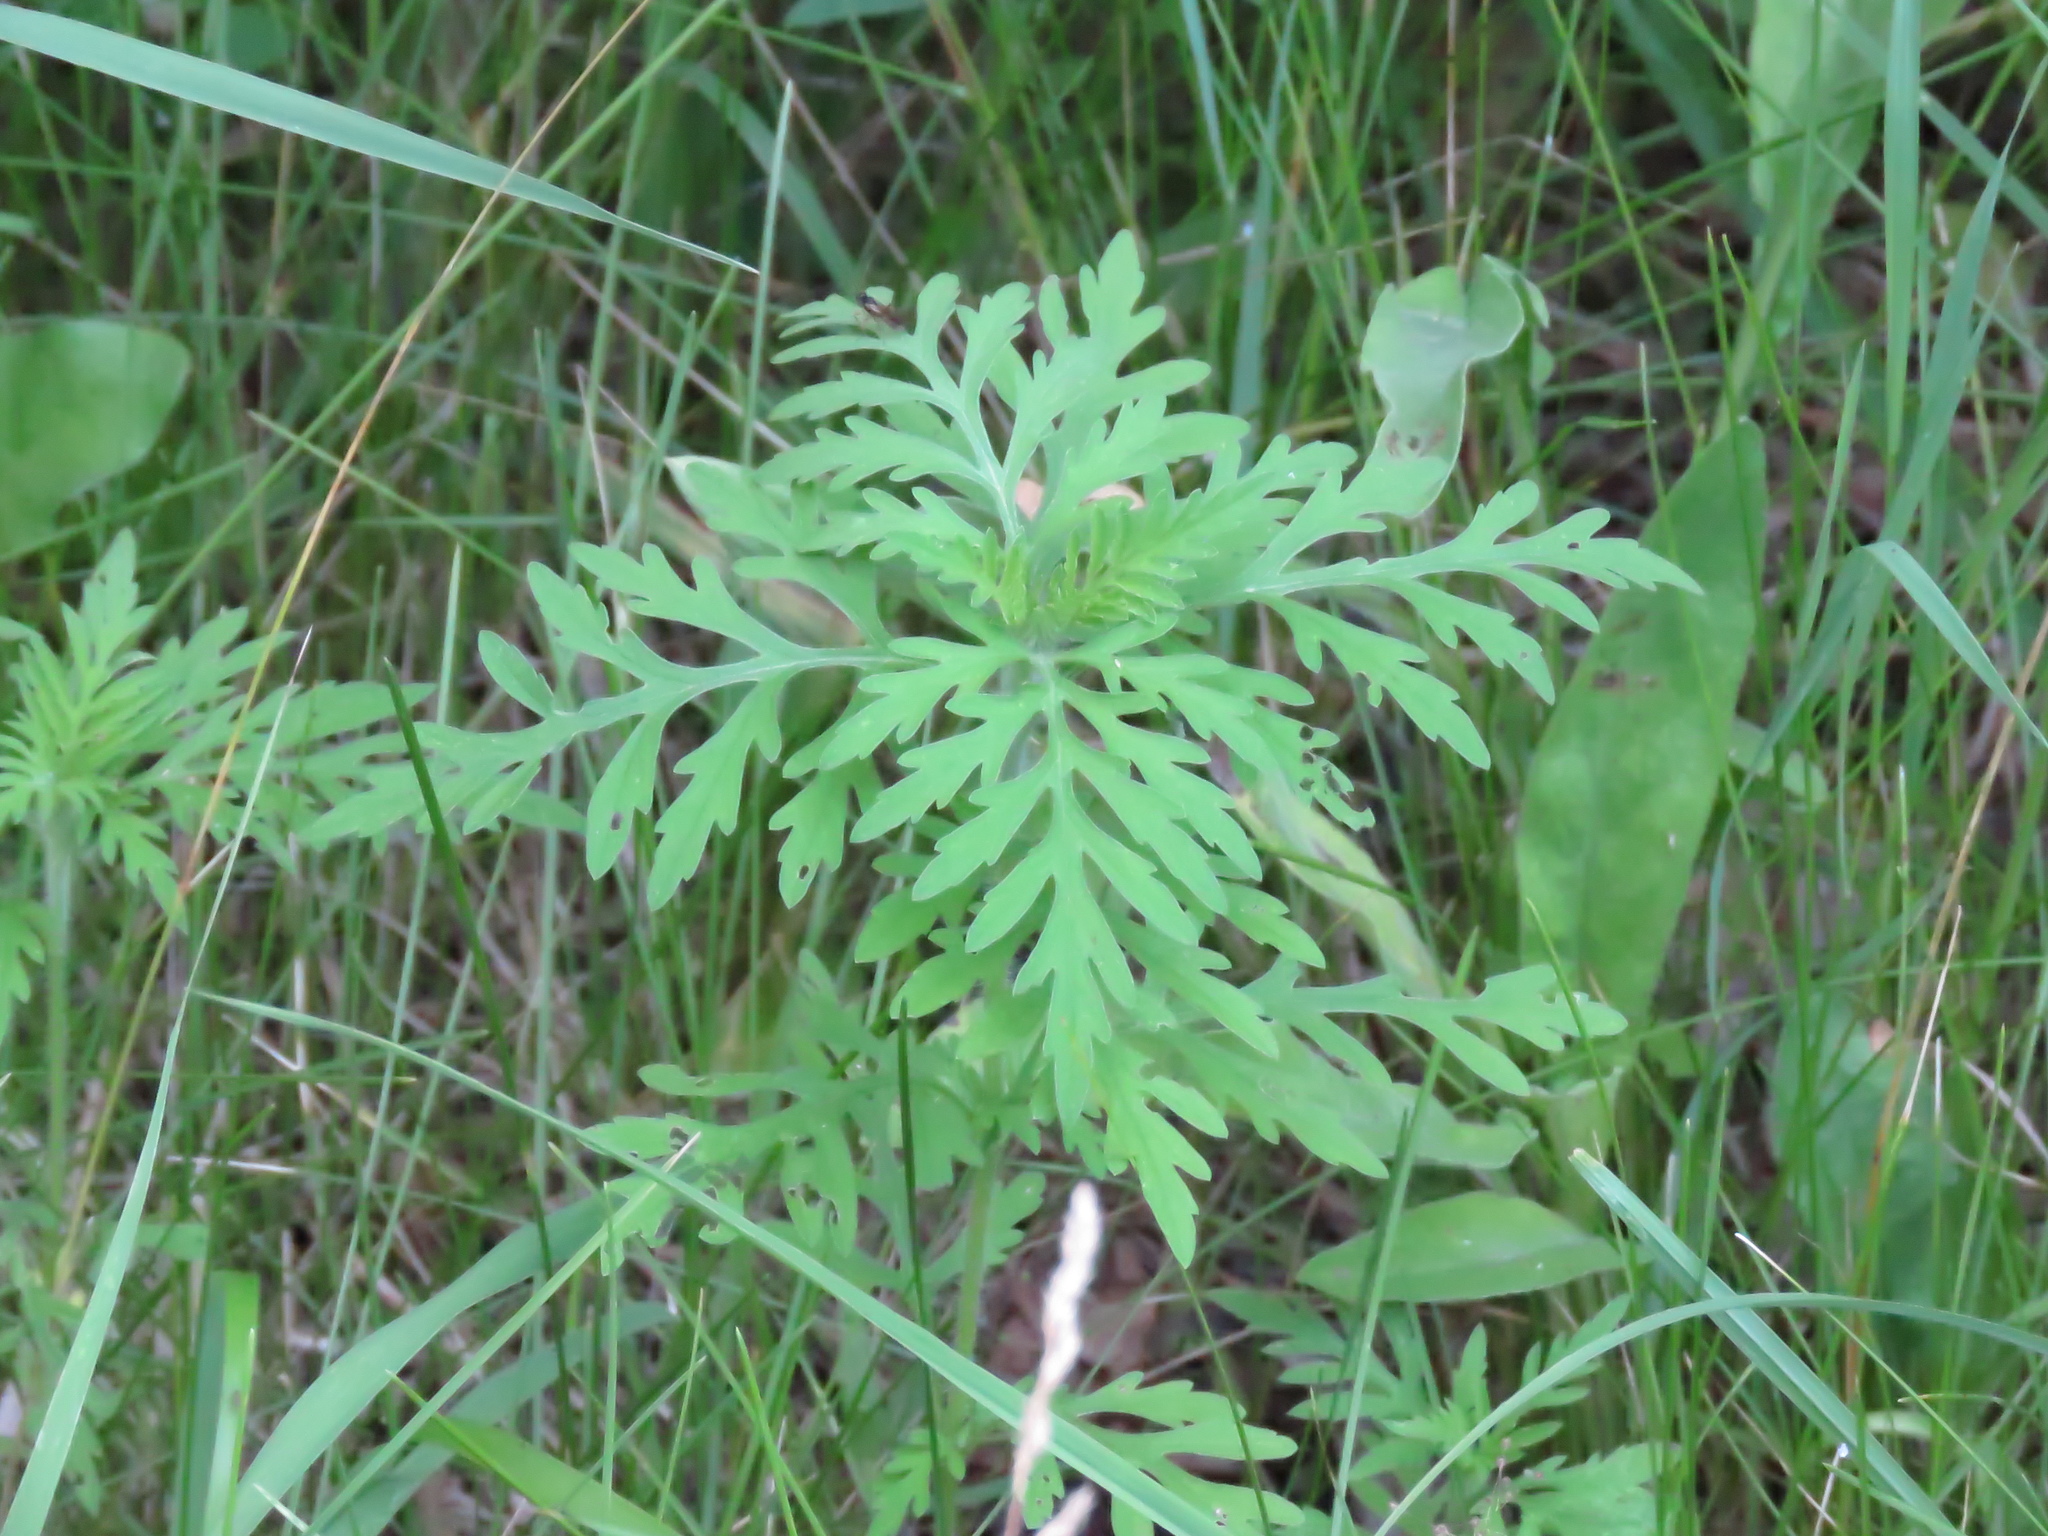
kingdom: Plantae
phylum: Tracheophyta
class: Magnoliopsida
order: Asterales
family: Asteraceae
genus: Ambrosia
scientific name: Ambrosia artemisiifolia
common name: Annual ragweed
